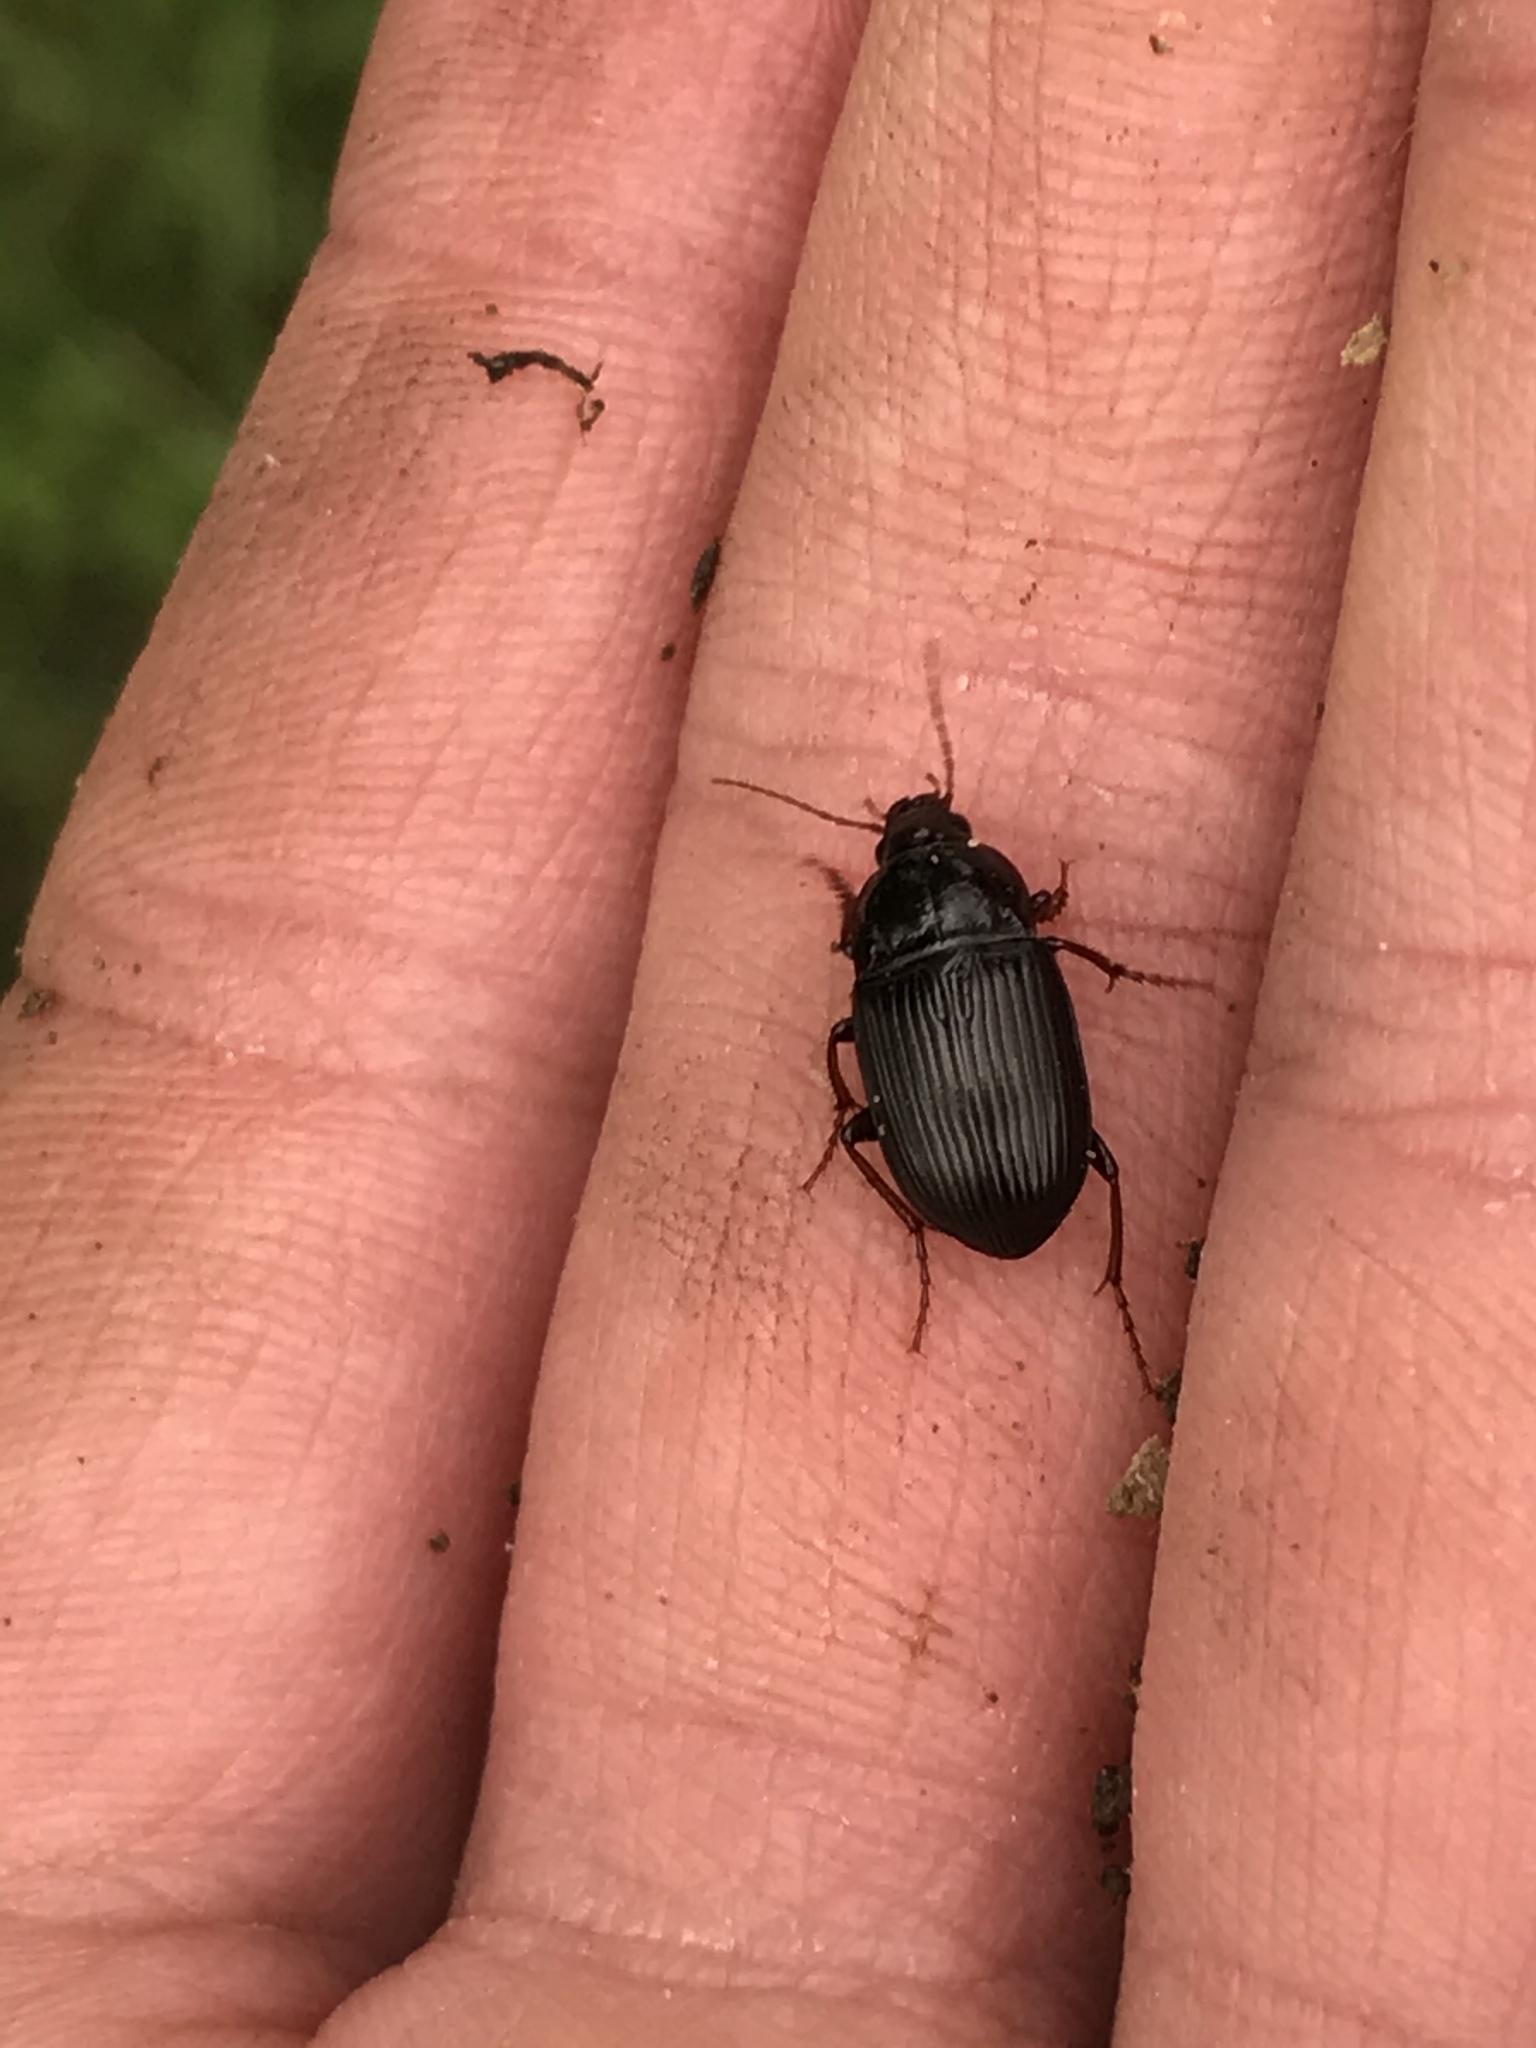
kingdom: Animalia
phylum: Arthropoda
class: Insecta
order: Coleoptera
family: Carabidae
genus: Amara
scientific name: Amara obesa
